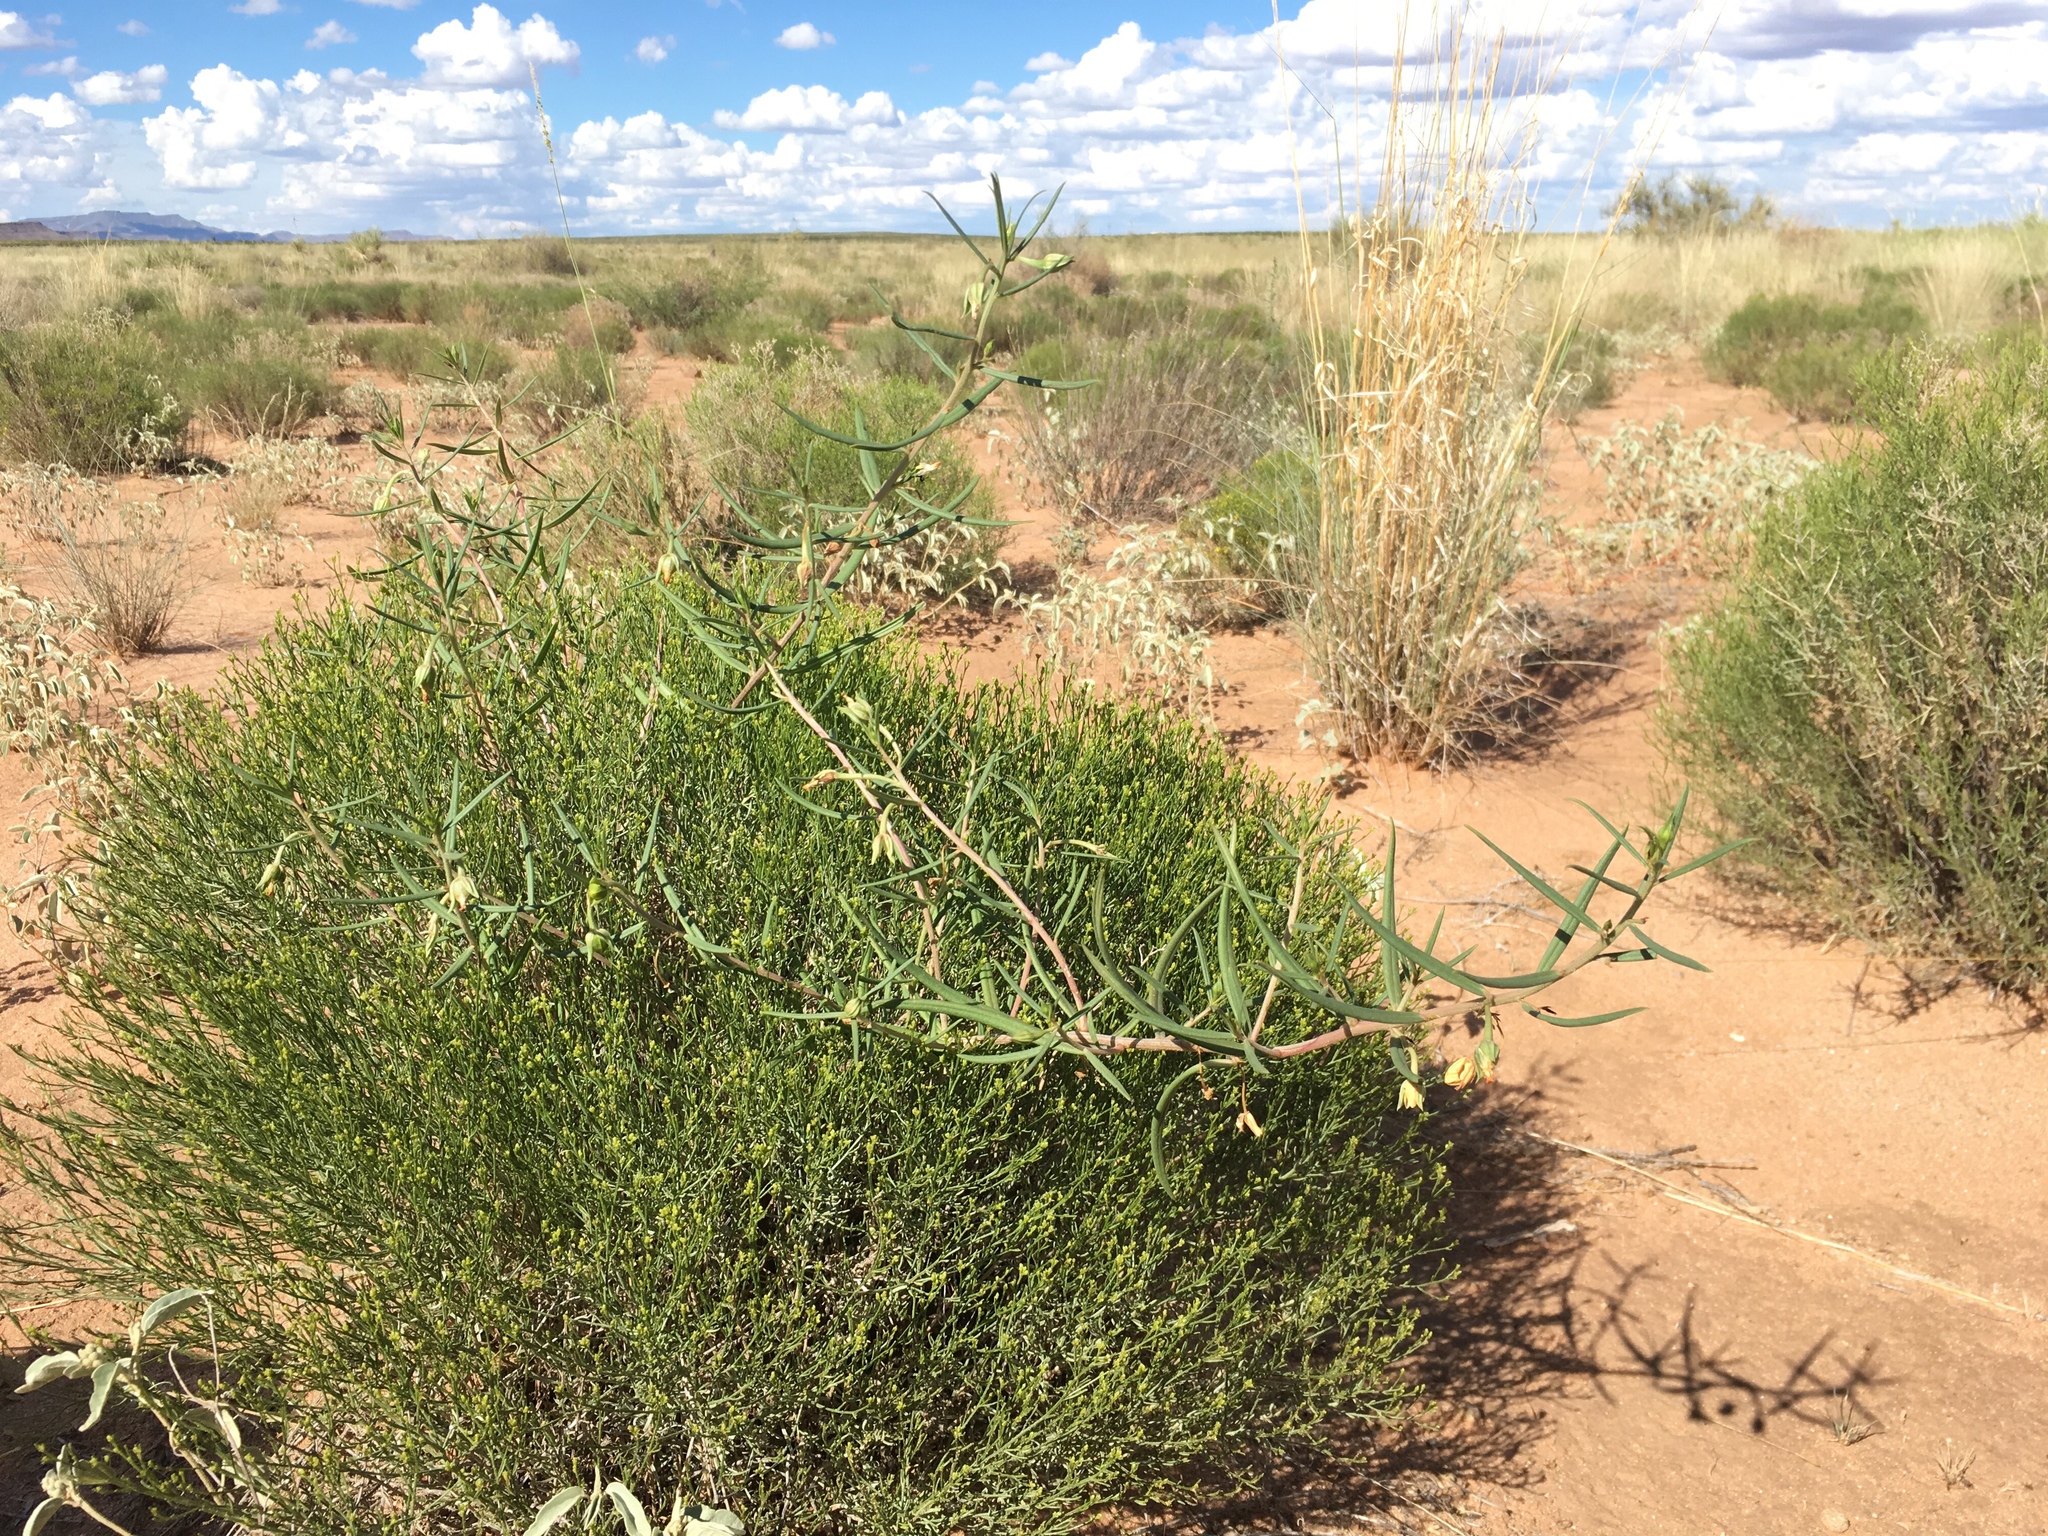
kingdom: Plantae
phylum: Tracheophyta
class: Magnoliopsida
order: Caryophyllales
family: Montiaceae
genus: Phemeranthus
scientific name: Phemeranthus aurantiacus
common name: Orange fameflower
